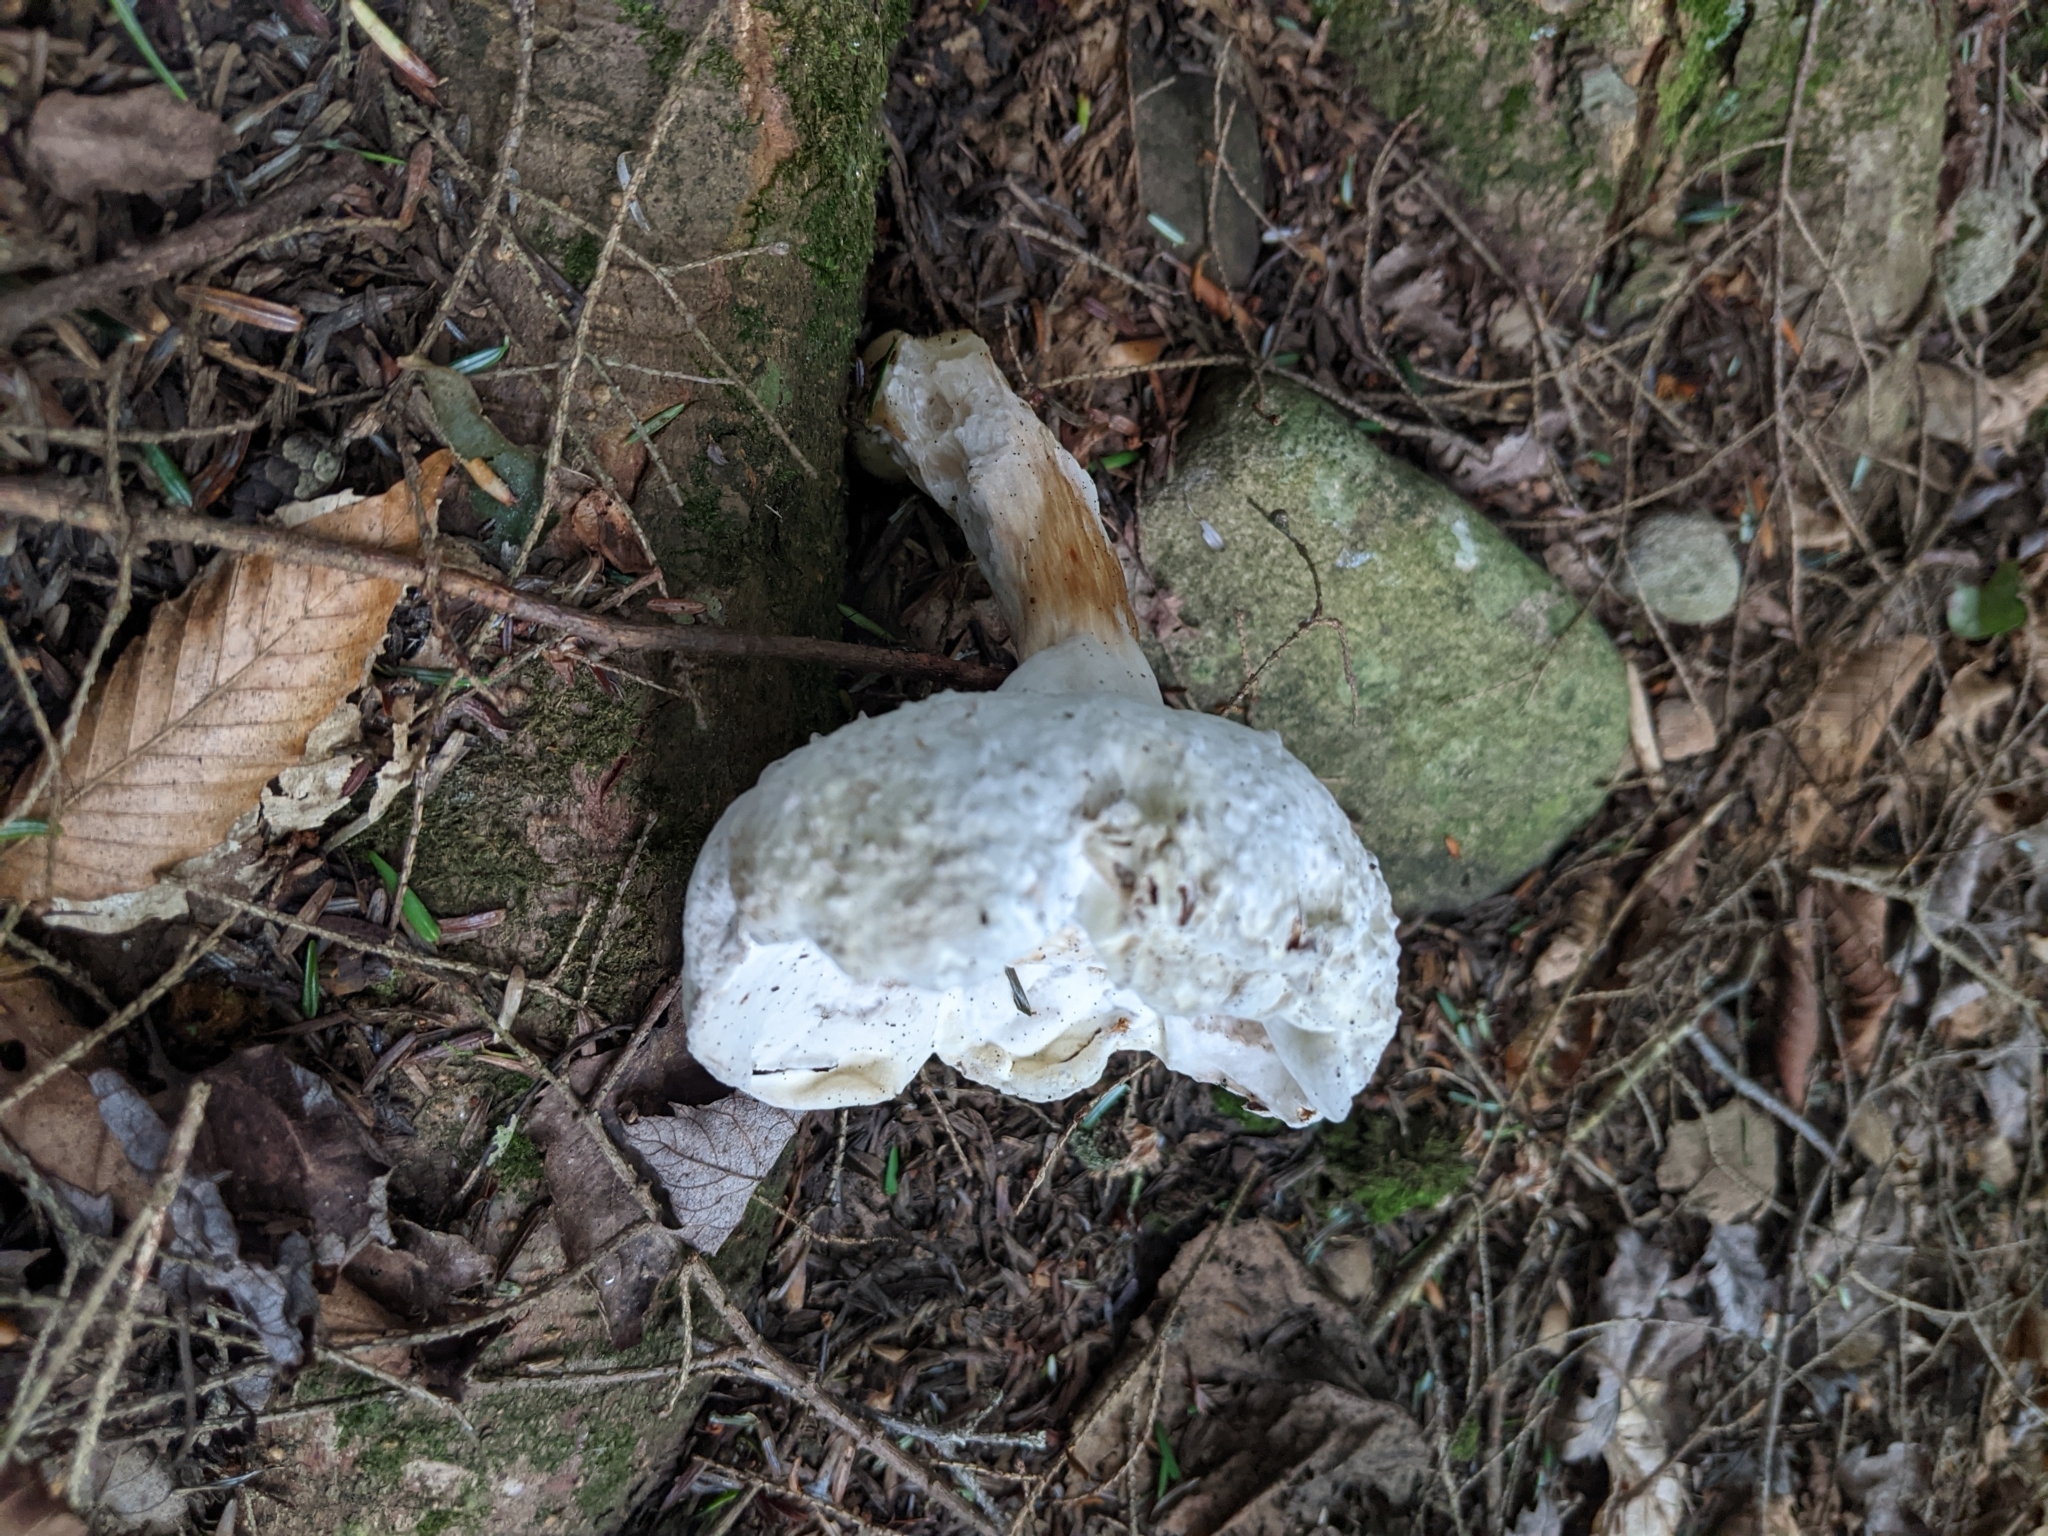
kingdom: Fungi
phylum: Ascomycota
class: Sordariomycetes
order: Hypocreales
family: Hypocreaceae
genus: Hypomyces
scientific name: Hypomyces chrysospermus
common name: Bolete mould
